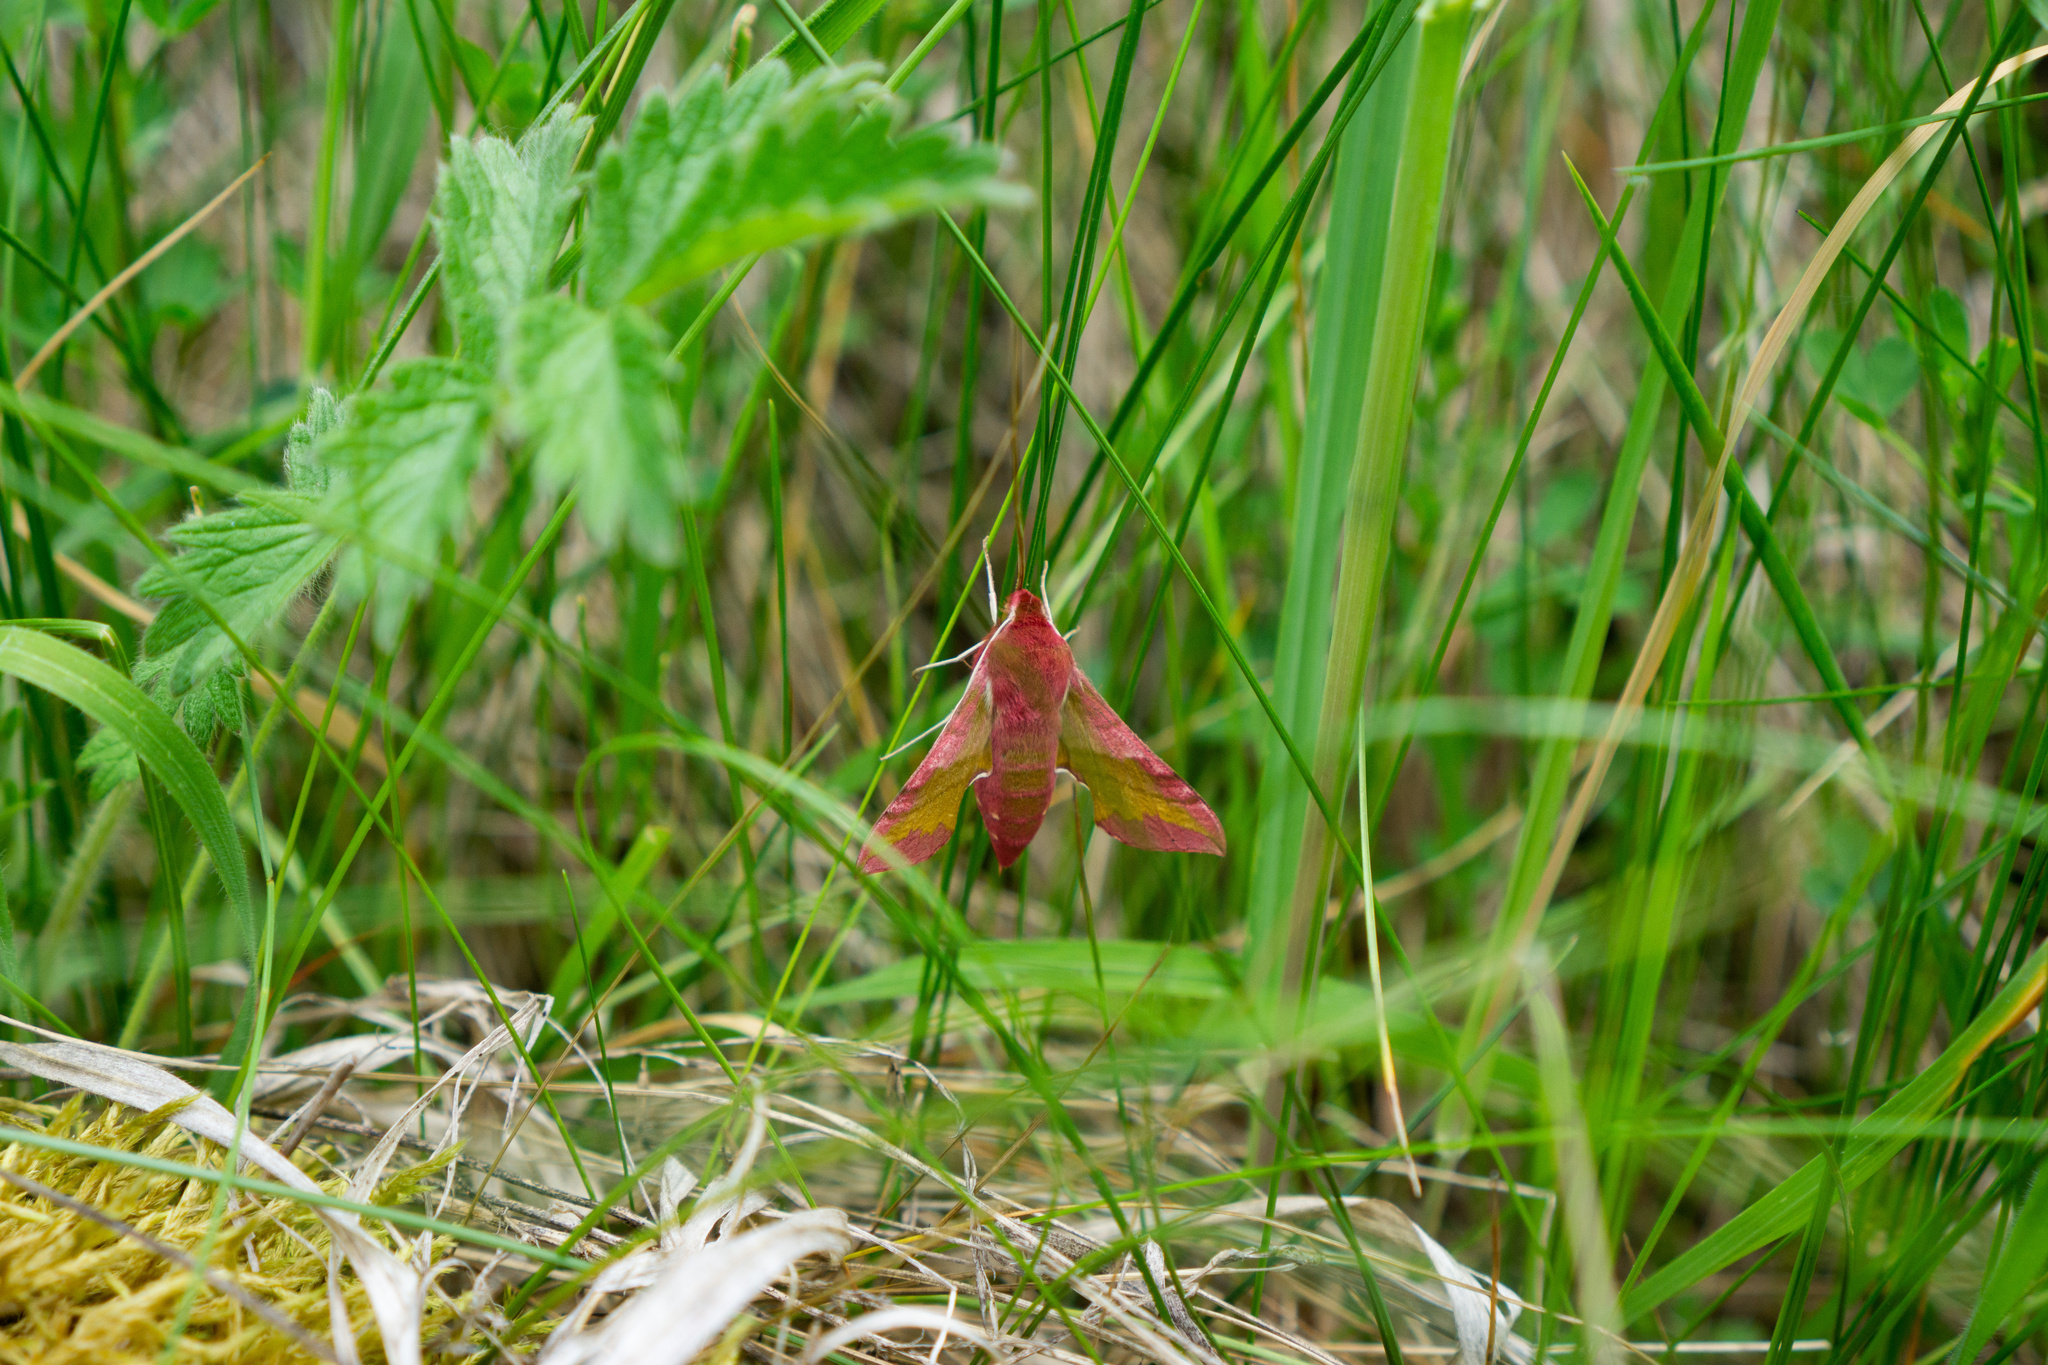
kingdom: Animalia
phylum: Arthropoda
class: Insecta
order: Lepidoptera
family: Sphingidae
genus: Deilephila
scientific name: Deilephila porcellus
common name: Small elephant hawk-moth
